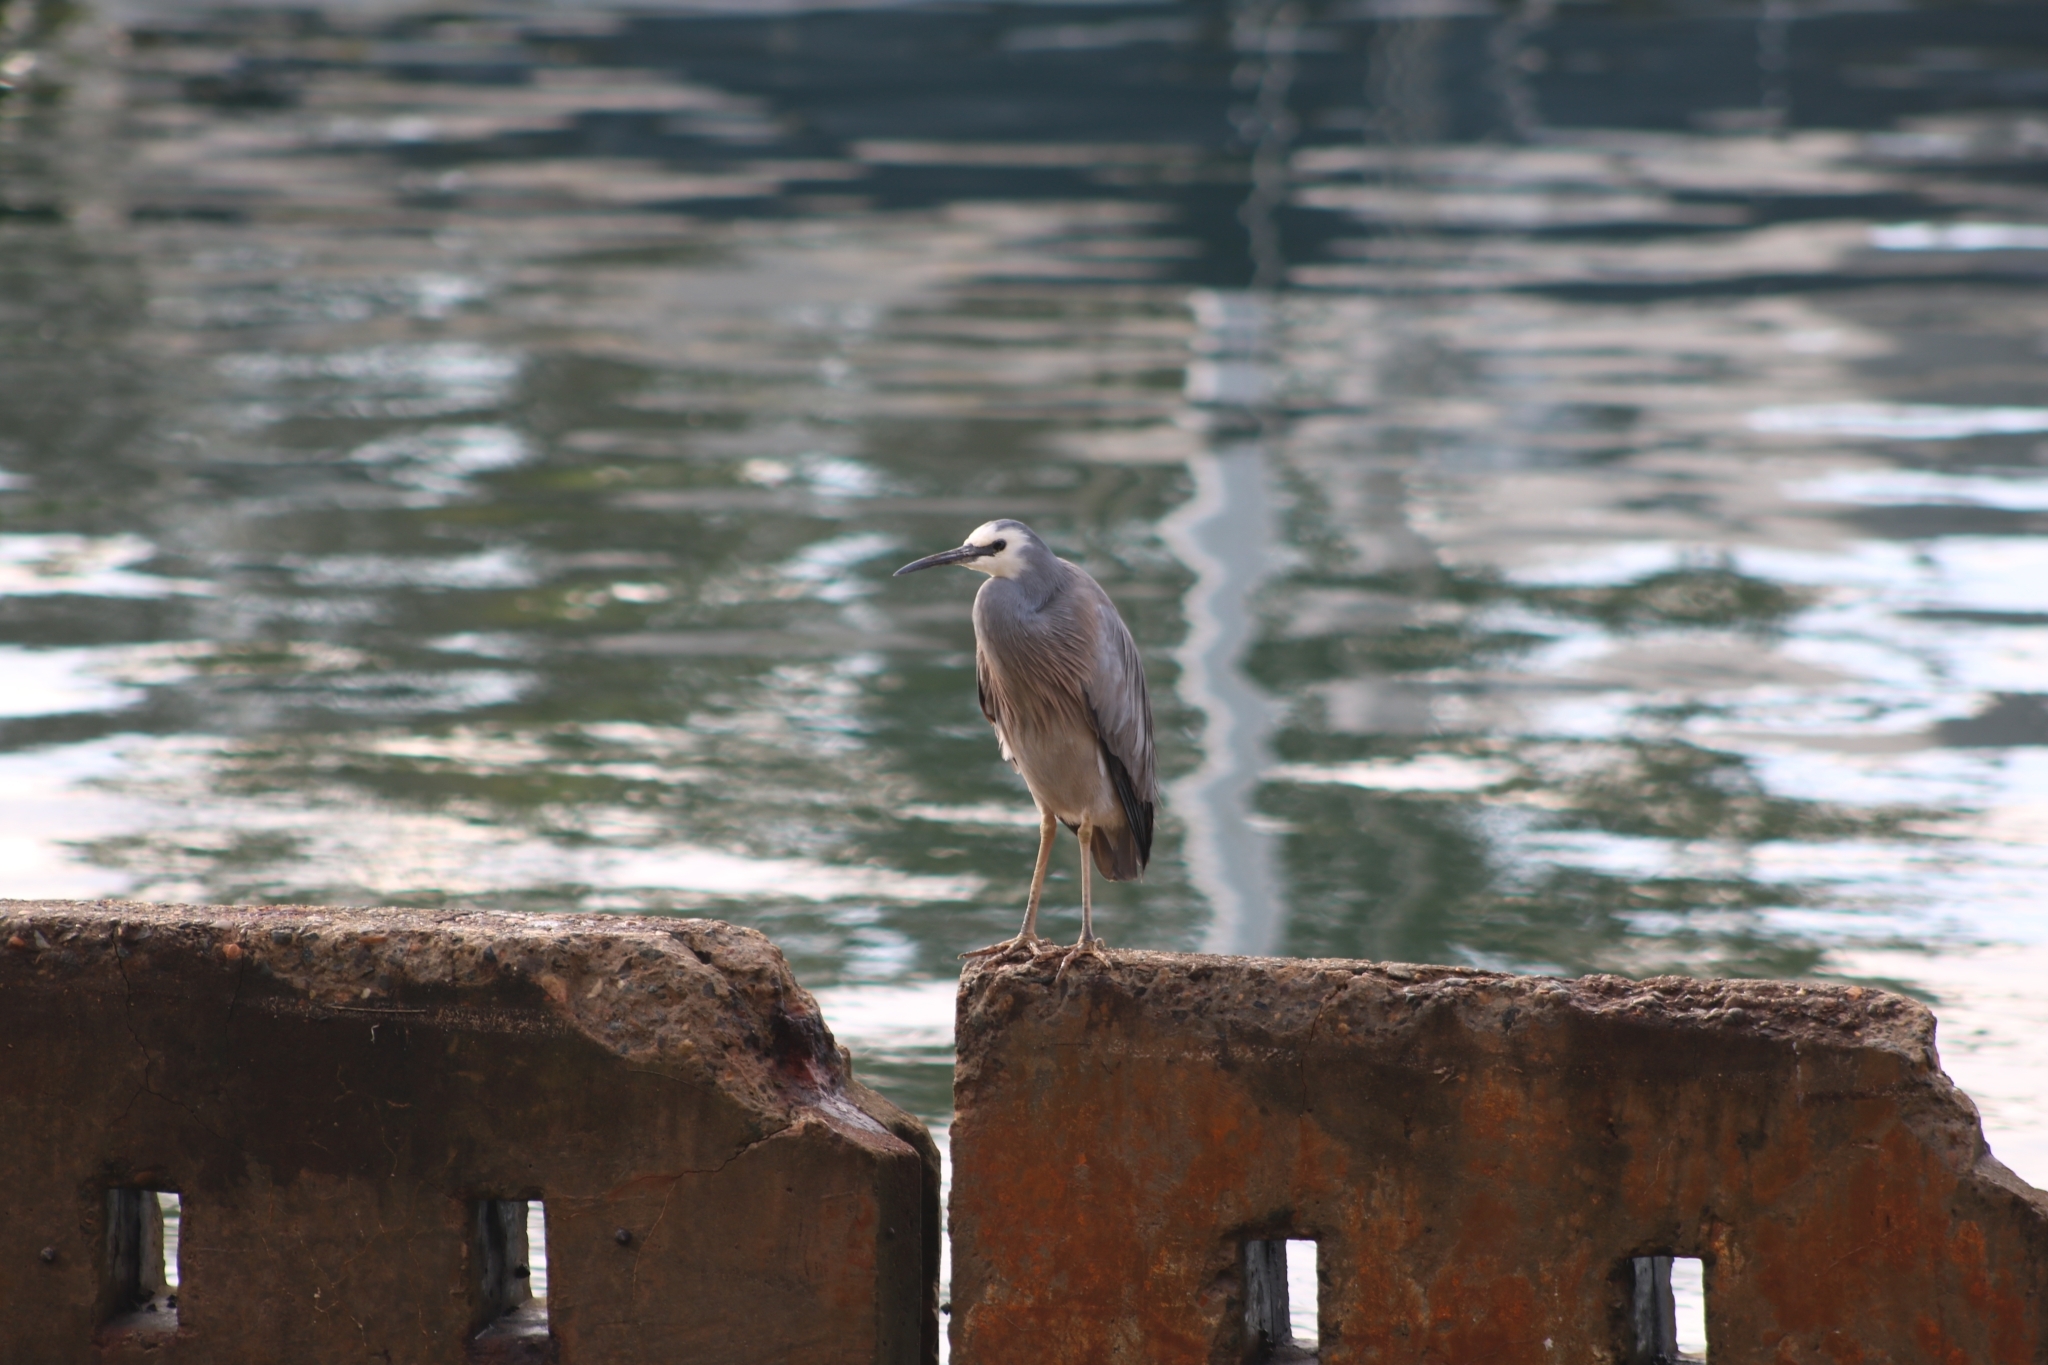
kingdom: Animalia
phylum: Chordata
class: Aves
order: Pelecaniformes
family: Ardeidae
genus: Egretta
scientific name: Egretta novaehollandiae
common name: White-faced heron
